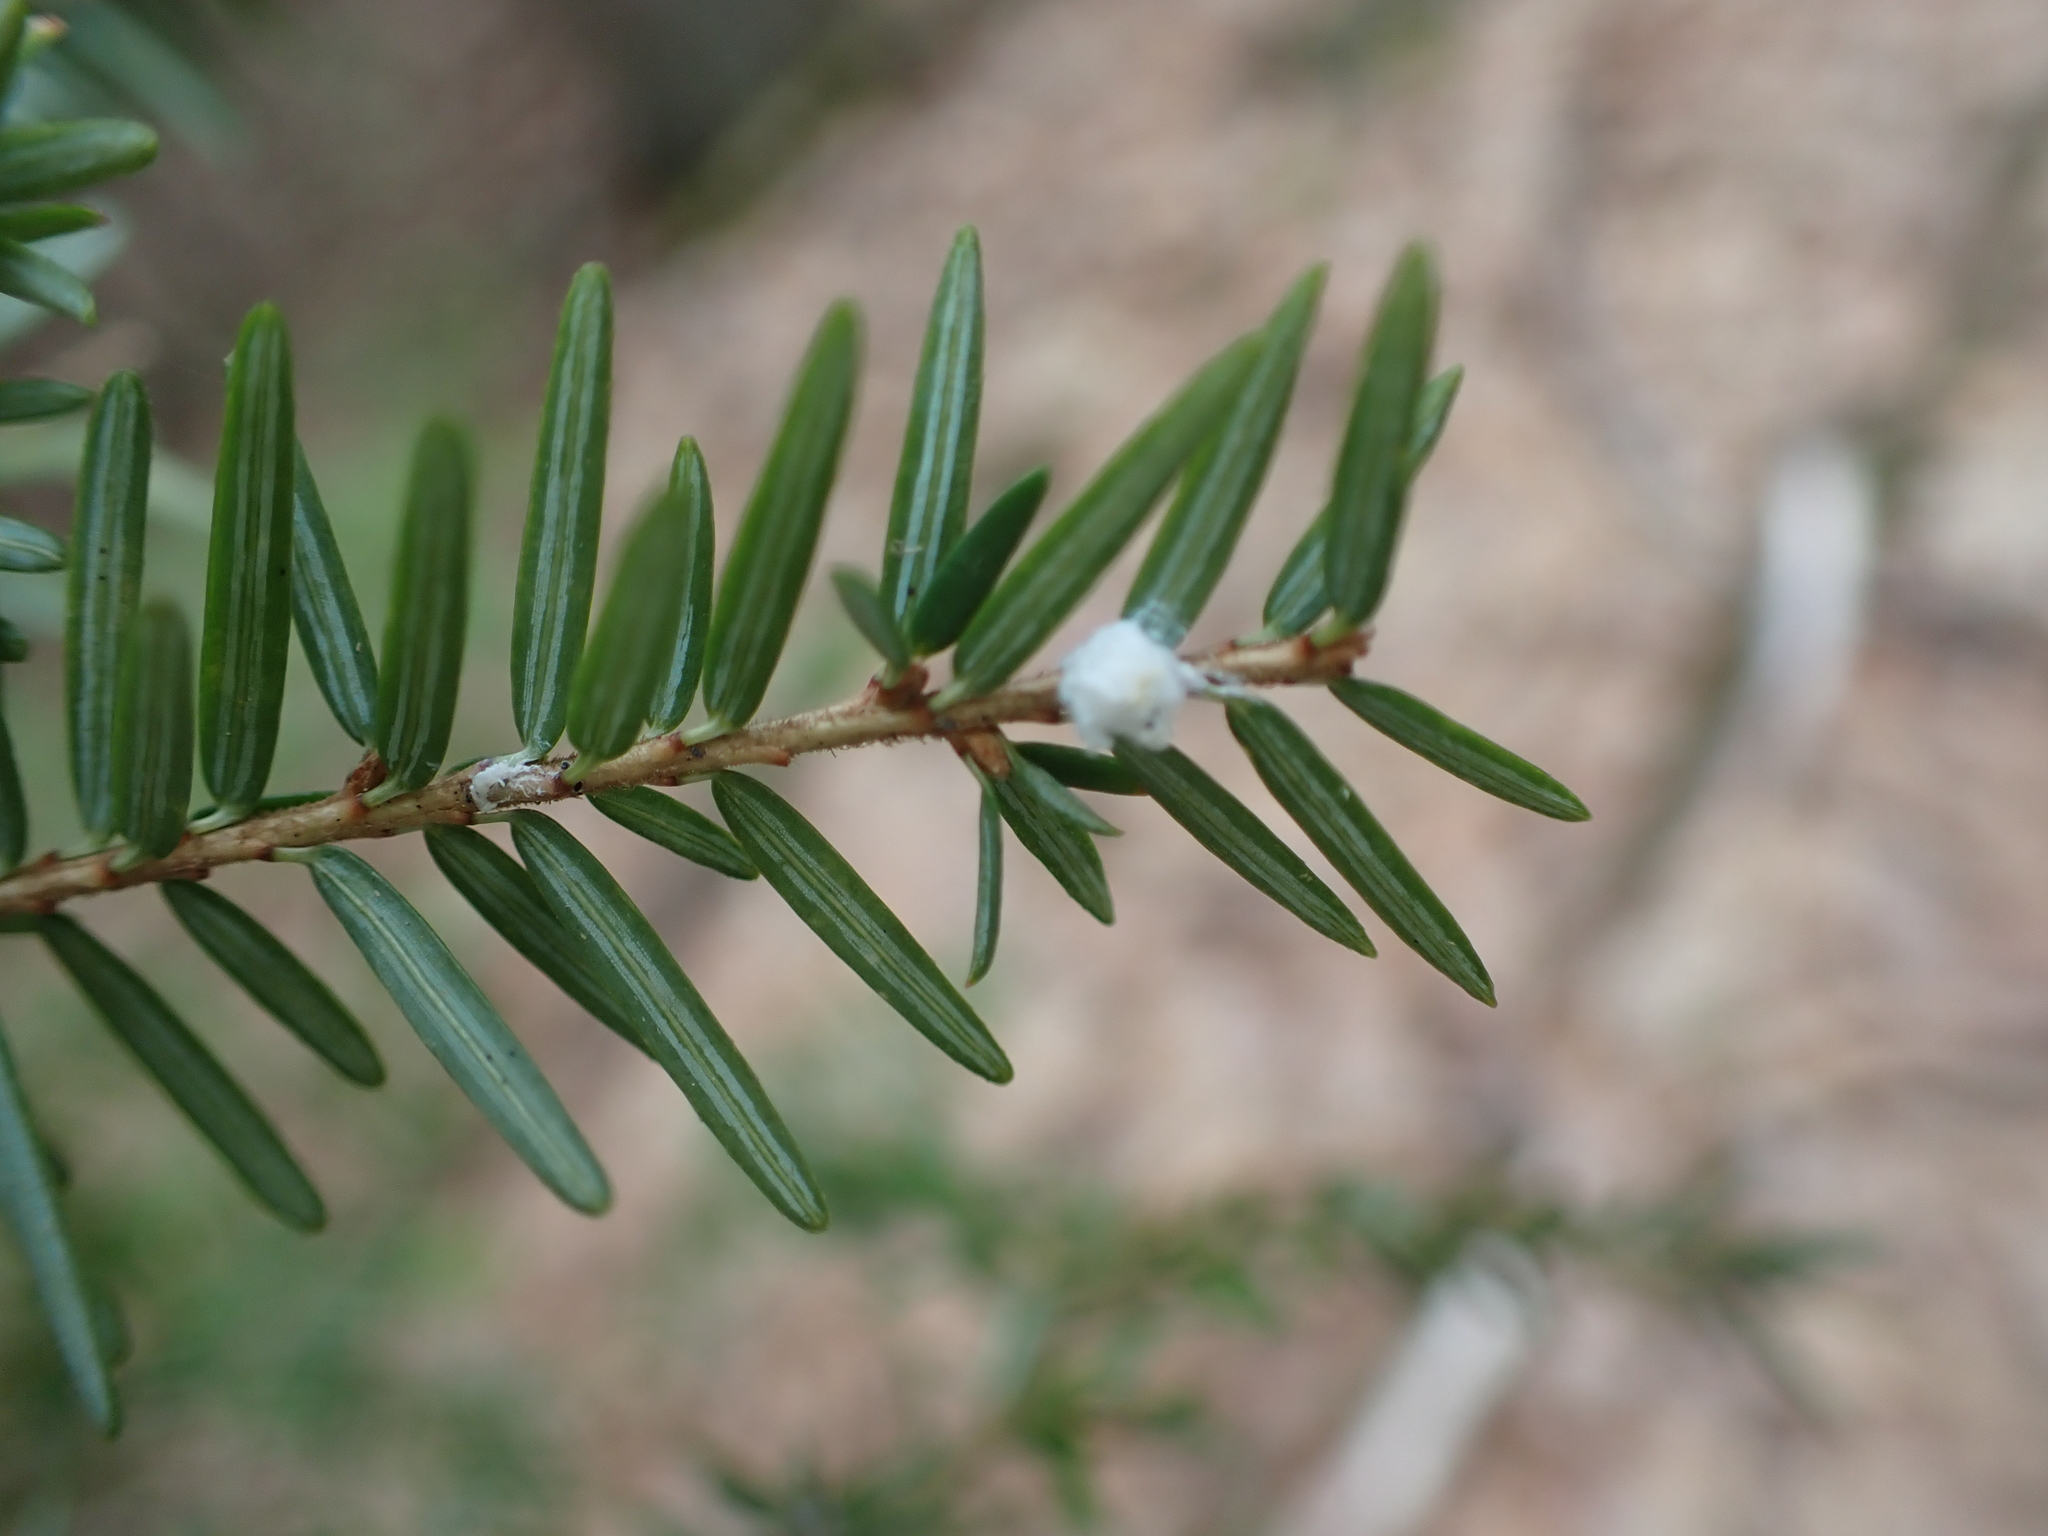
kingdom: Animalia
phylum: Arthropoda
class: Insecta
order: Hemiptera
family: Adelgidae
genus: Adelges
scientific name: Adelges tsugae
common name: Hemlock woolly adelgid
